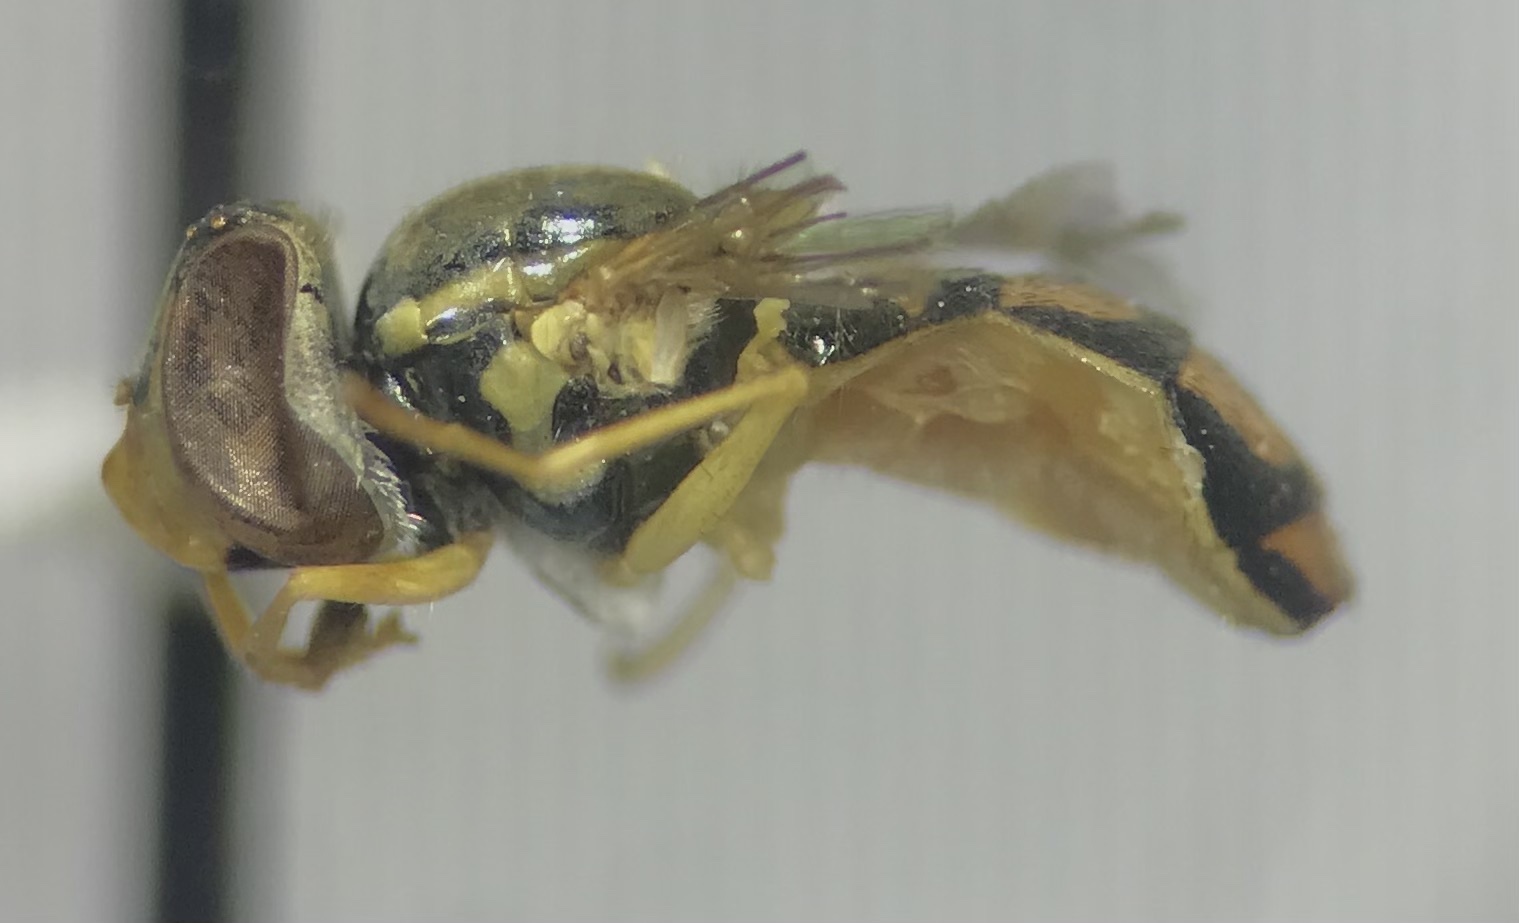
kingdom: Animalia
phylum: Arthropoda
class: Insecta
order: Diptera
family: Syrphidae
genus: Toxomerus
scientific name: Toxomerus marginatus
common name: Syrphid fly
